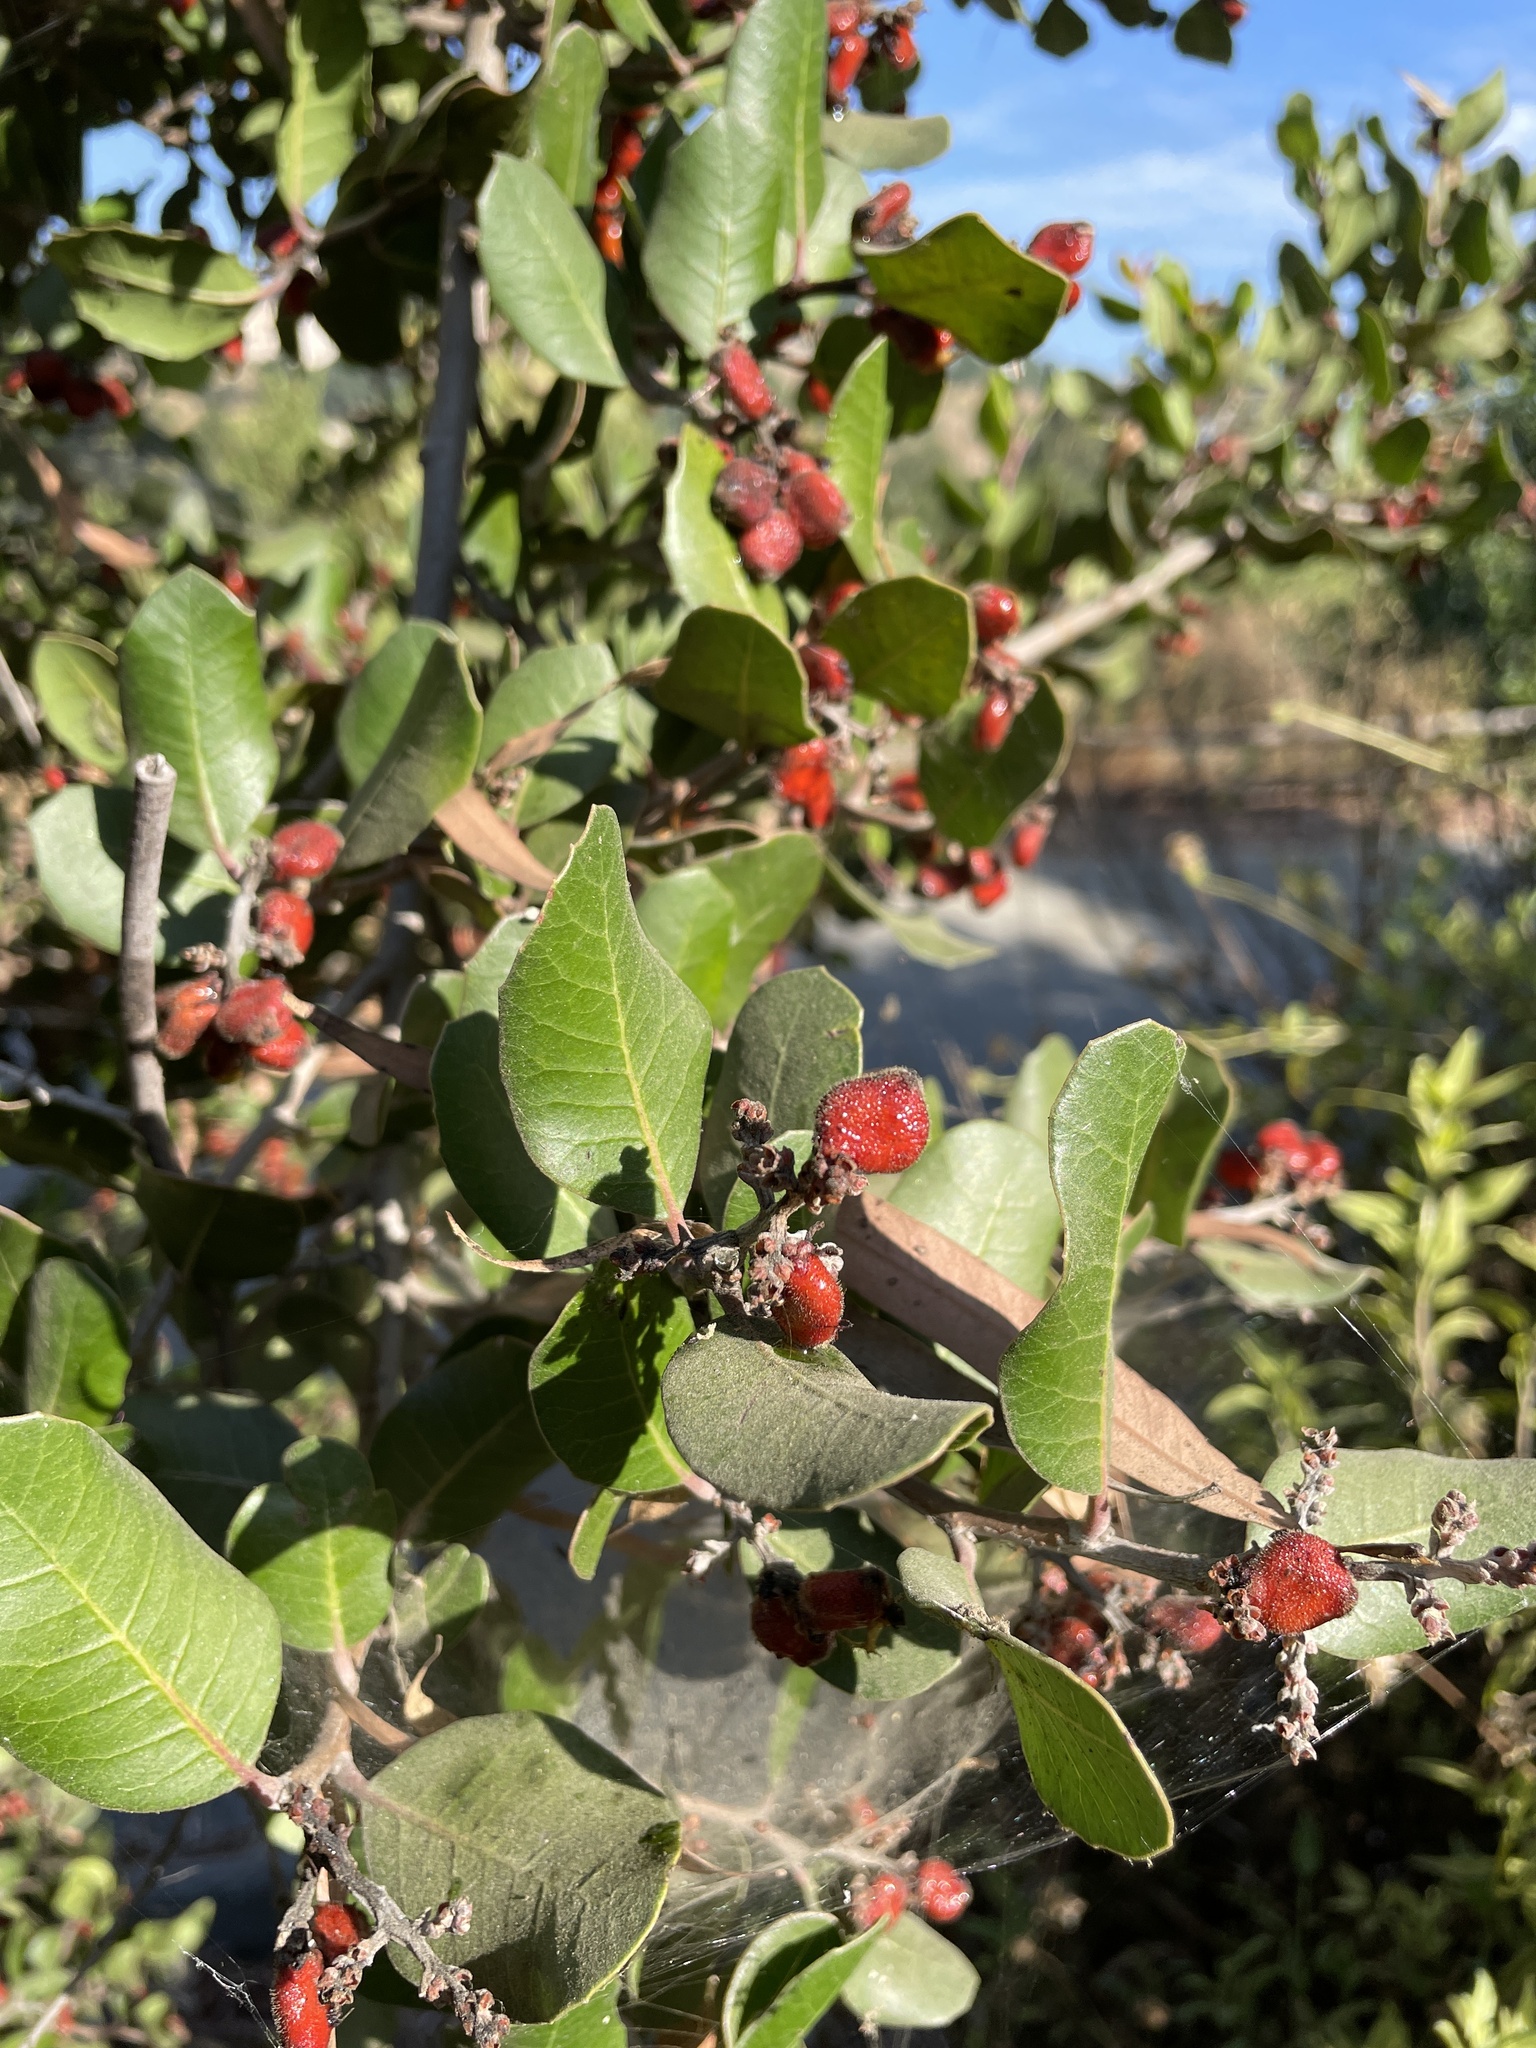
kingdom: Plantae
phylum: Tracheophyta
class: Magnoliopsida
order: Sapindales
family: Anacardiaceae
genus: Rhus
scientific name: Rhus integrifolia
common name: Lemonade sumac
